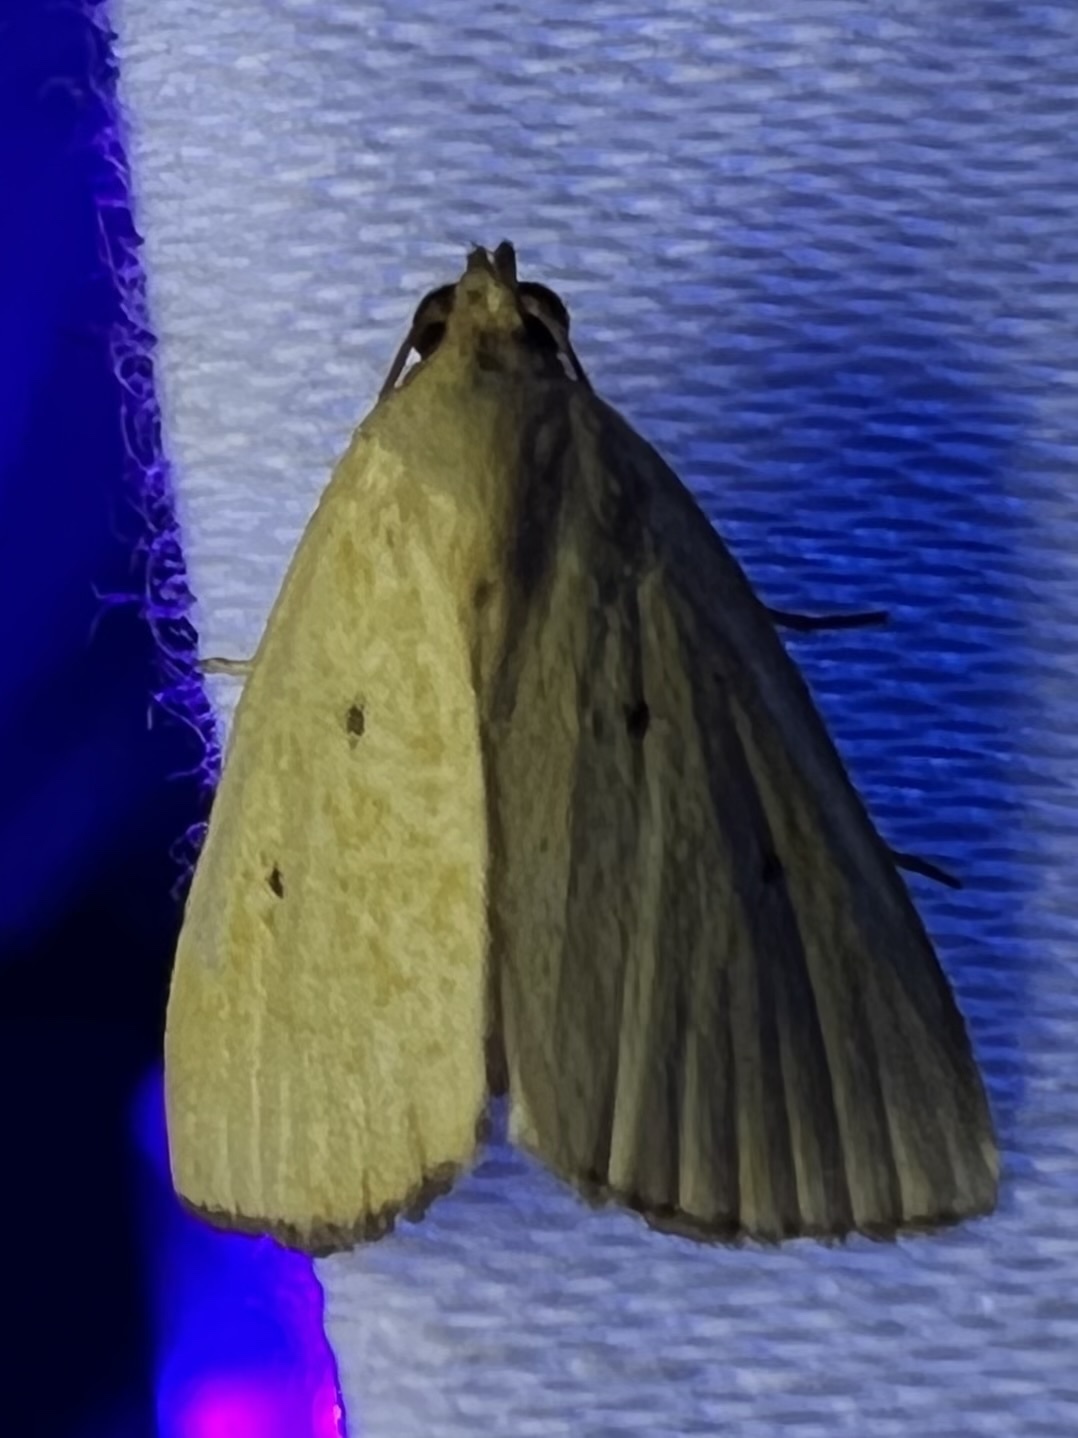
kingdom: Animalia
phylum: Arthropoda
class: Insecta
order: Lepidoptera
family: Noctuidae
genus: Marimatha
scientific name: Marimatha nigrofimbria
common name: Black-bordered lemon moth
